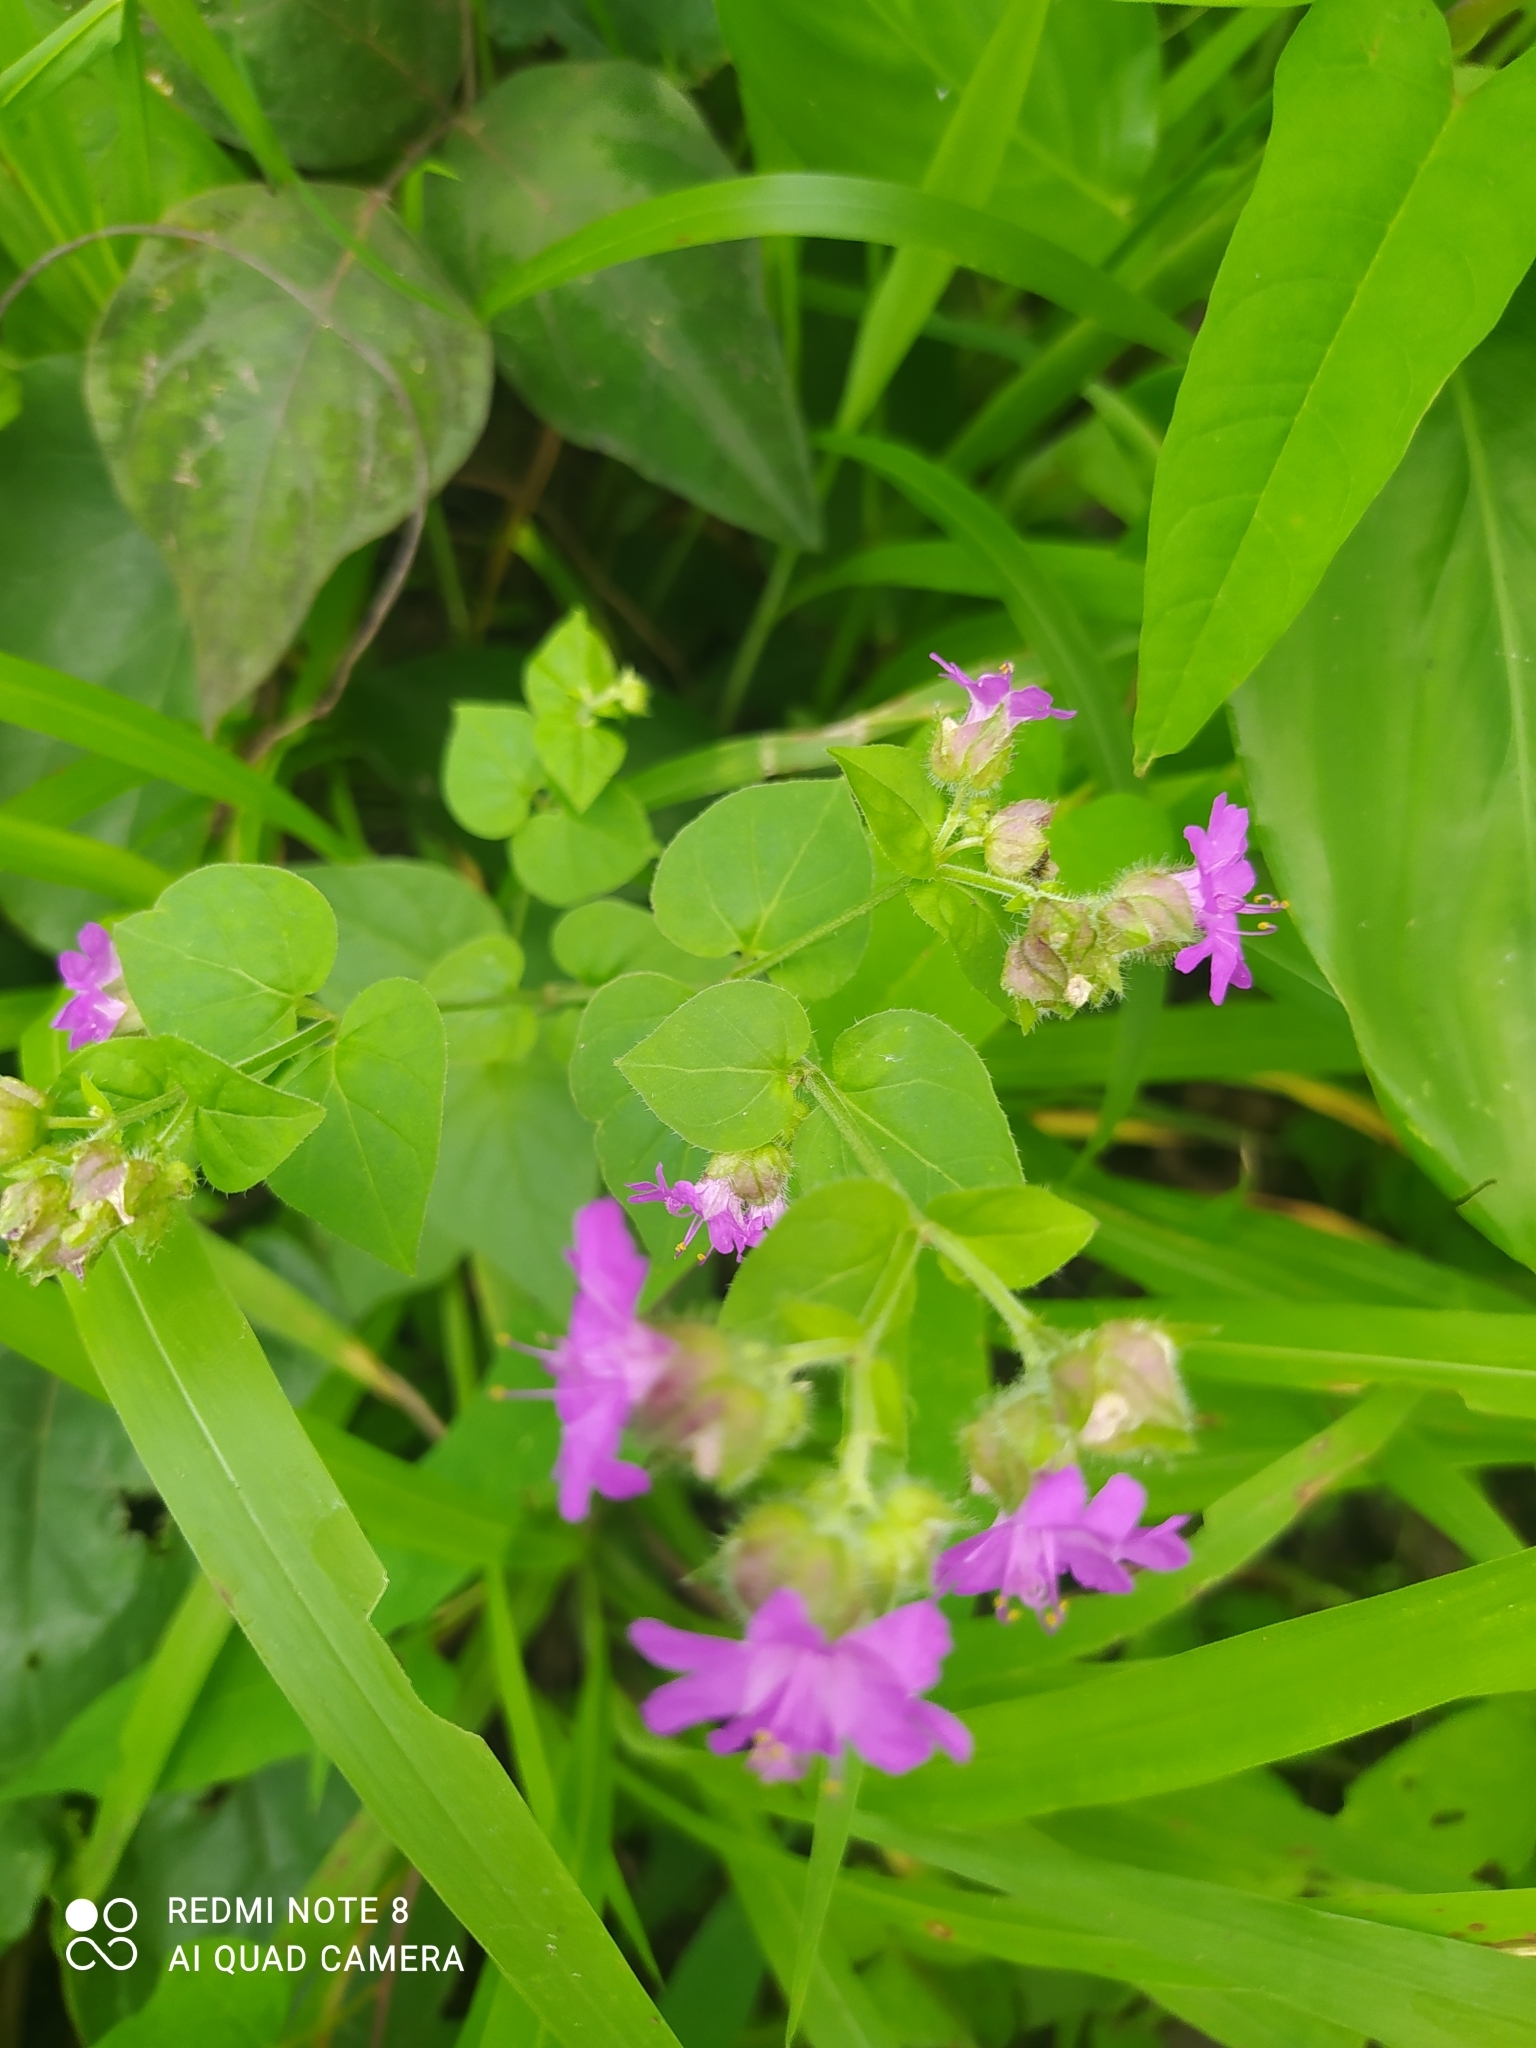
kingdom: Plantae
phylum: Tracheophyta
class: Magnoliopsida
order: Caryophyllales
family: Nyctaginaceae
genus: Mirabilis
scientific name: Mirabilis violacea
